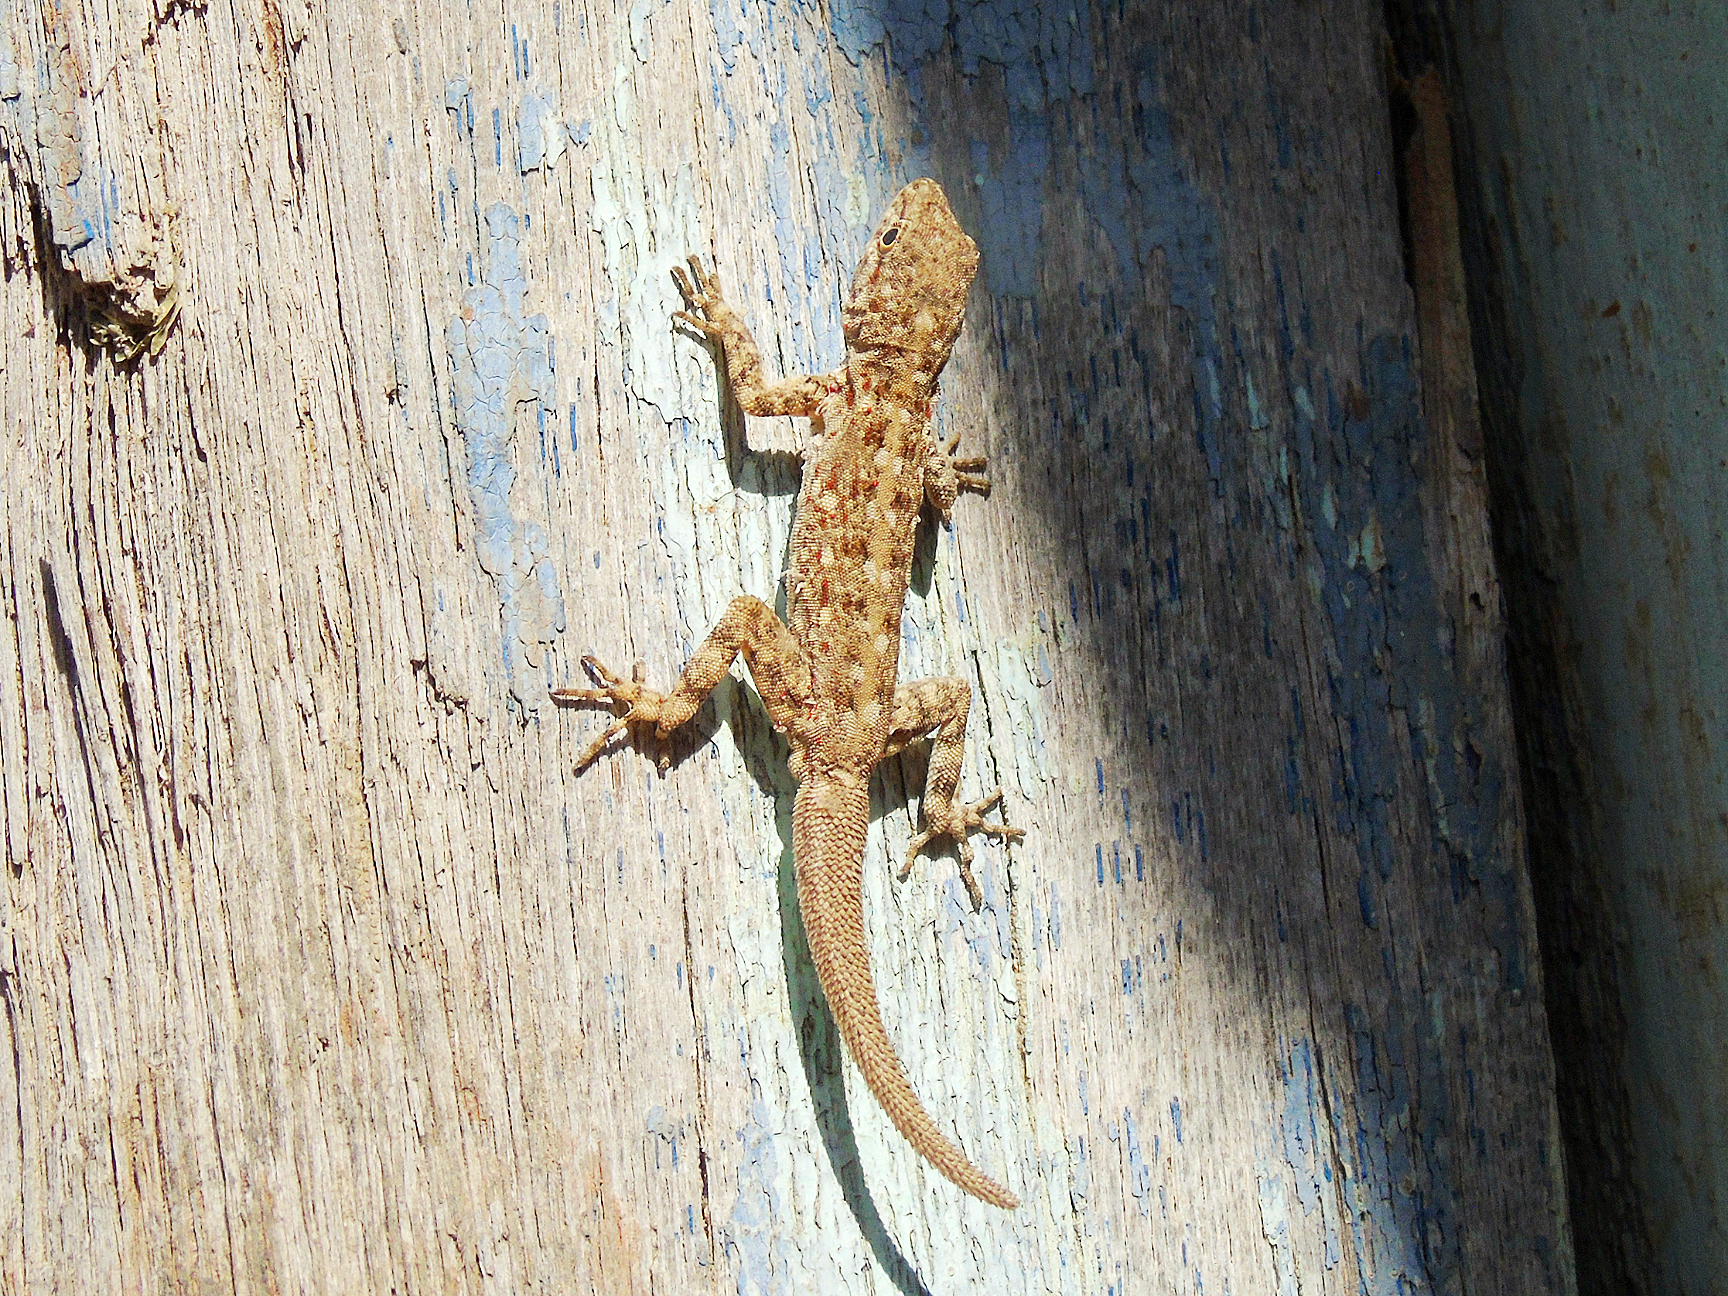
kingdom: Animalia
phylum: Chordata
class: Squamata
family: Sphaerodactylidae
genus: Pristurus
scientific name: Pristurus rupestris
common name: Blanford’s semaphore gecko
